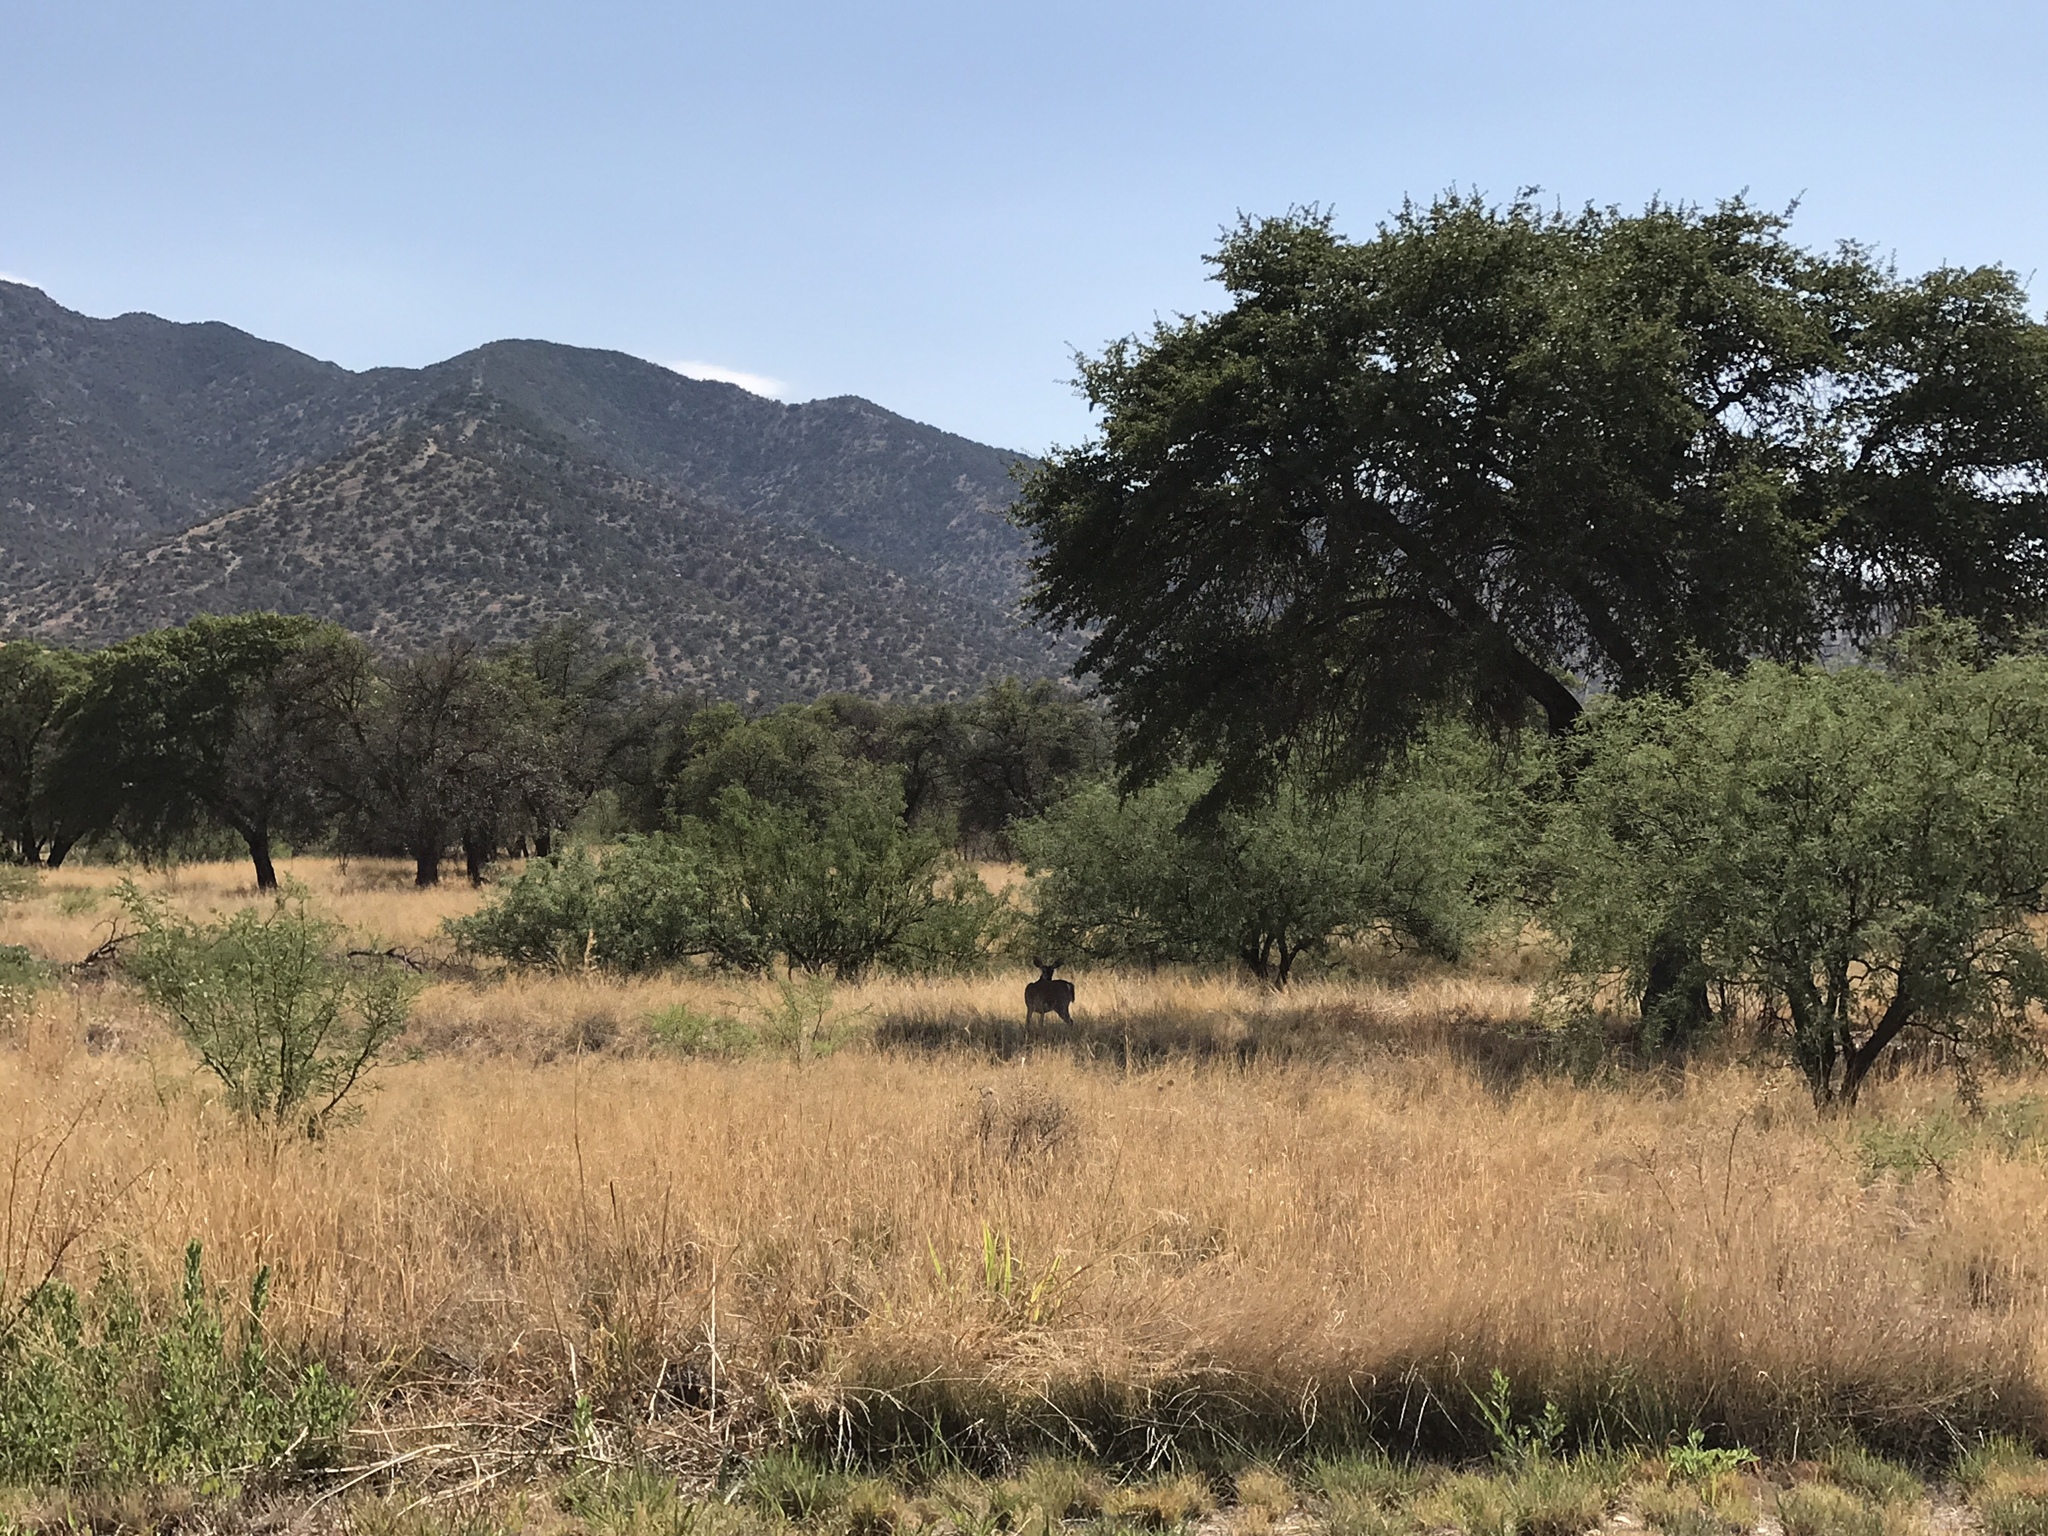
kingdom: Animalia
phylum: Chordata
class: Mammalia
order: Artiodactyla
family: Cervidae
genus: Odocoileus
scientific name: Odocoileus virginianus
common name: White-tailed deer
